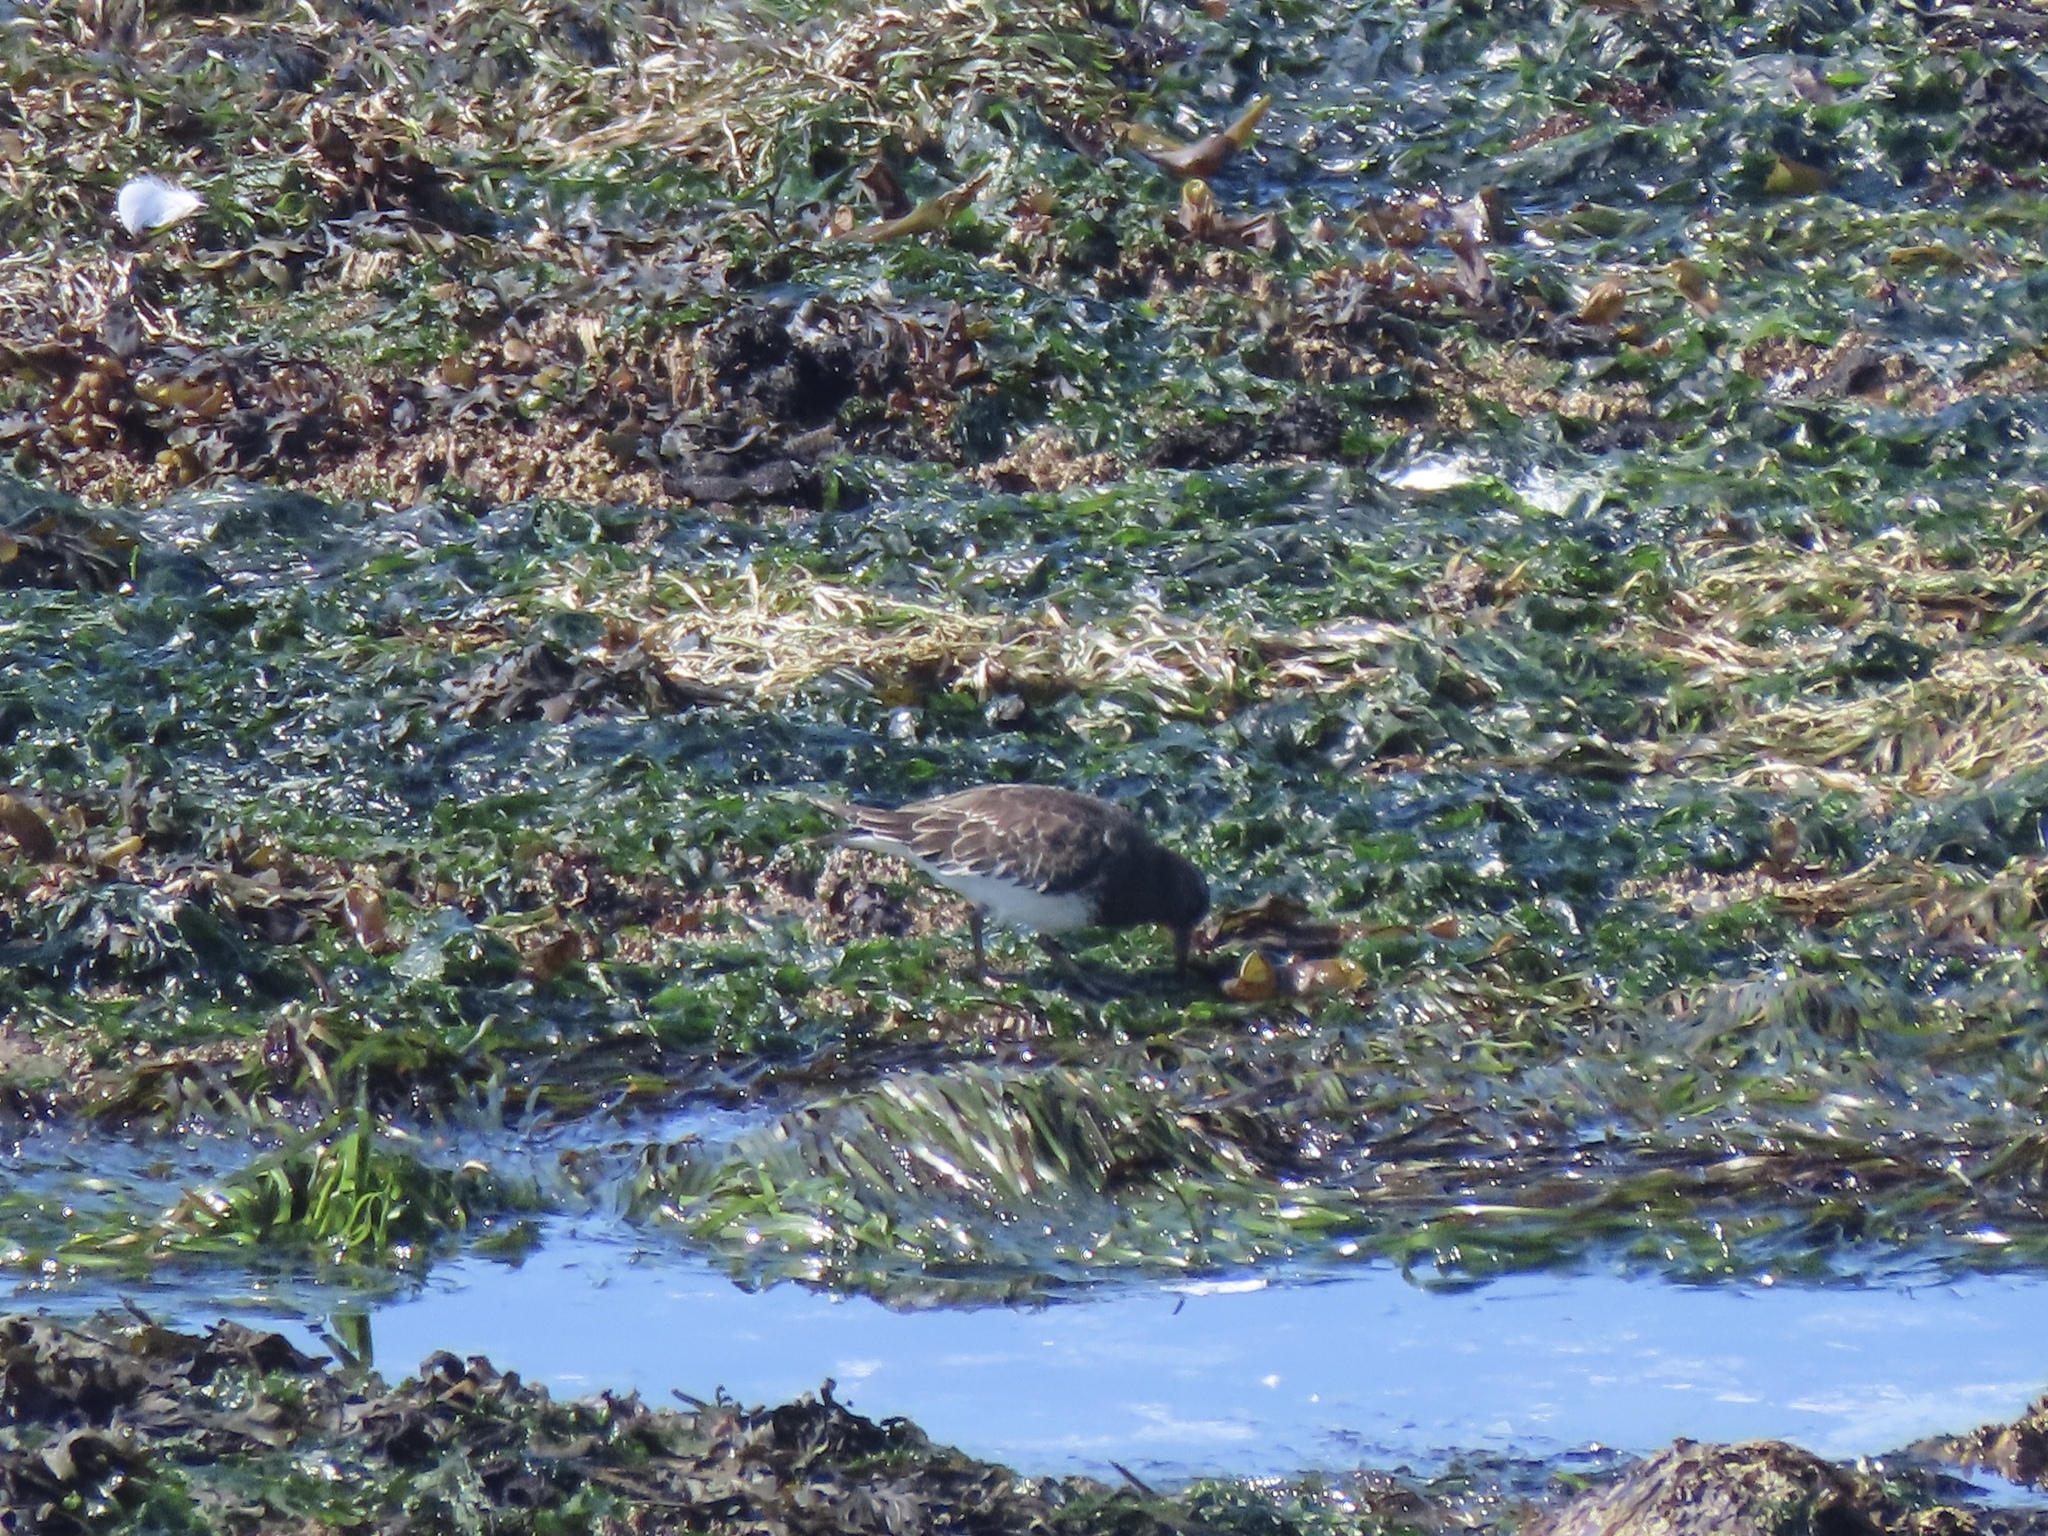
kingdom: Animalia
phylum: Chordata
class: Aves
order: Charadriiformes
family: Scolopacidae
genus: Arenaria
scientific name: Arenaria melanocephala
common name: Black turnstone
